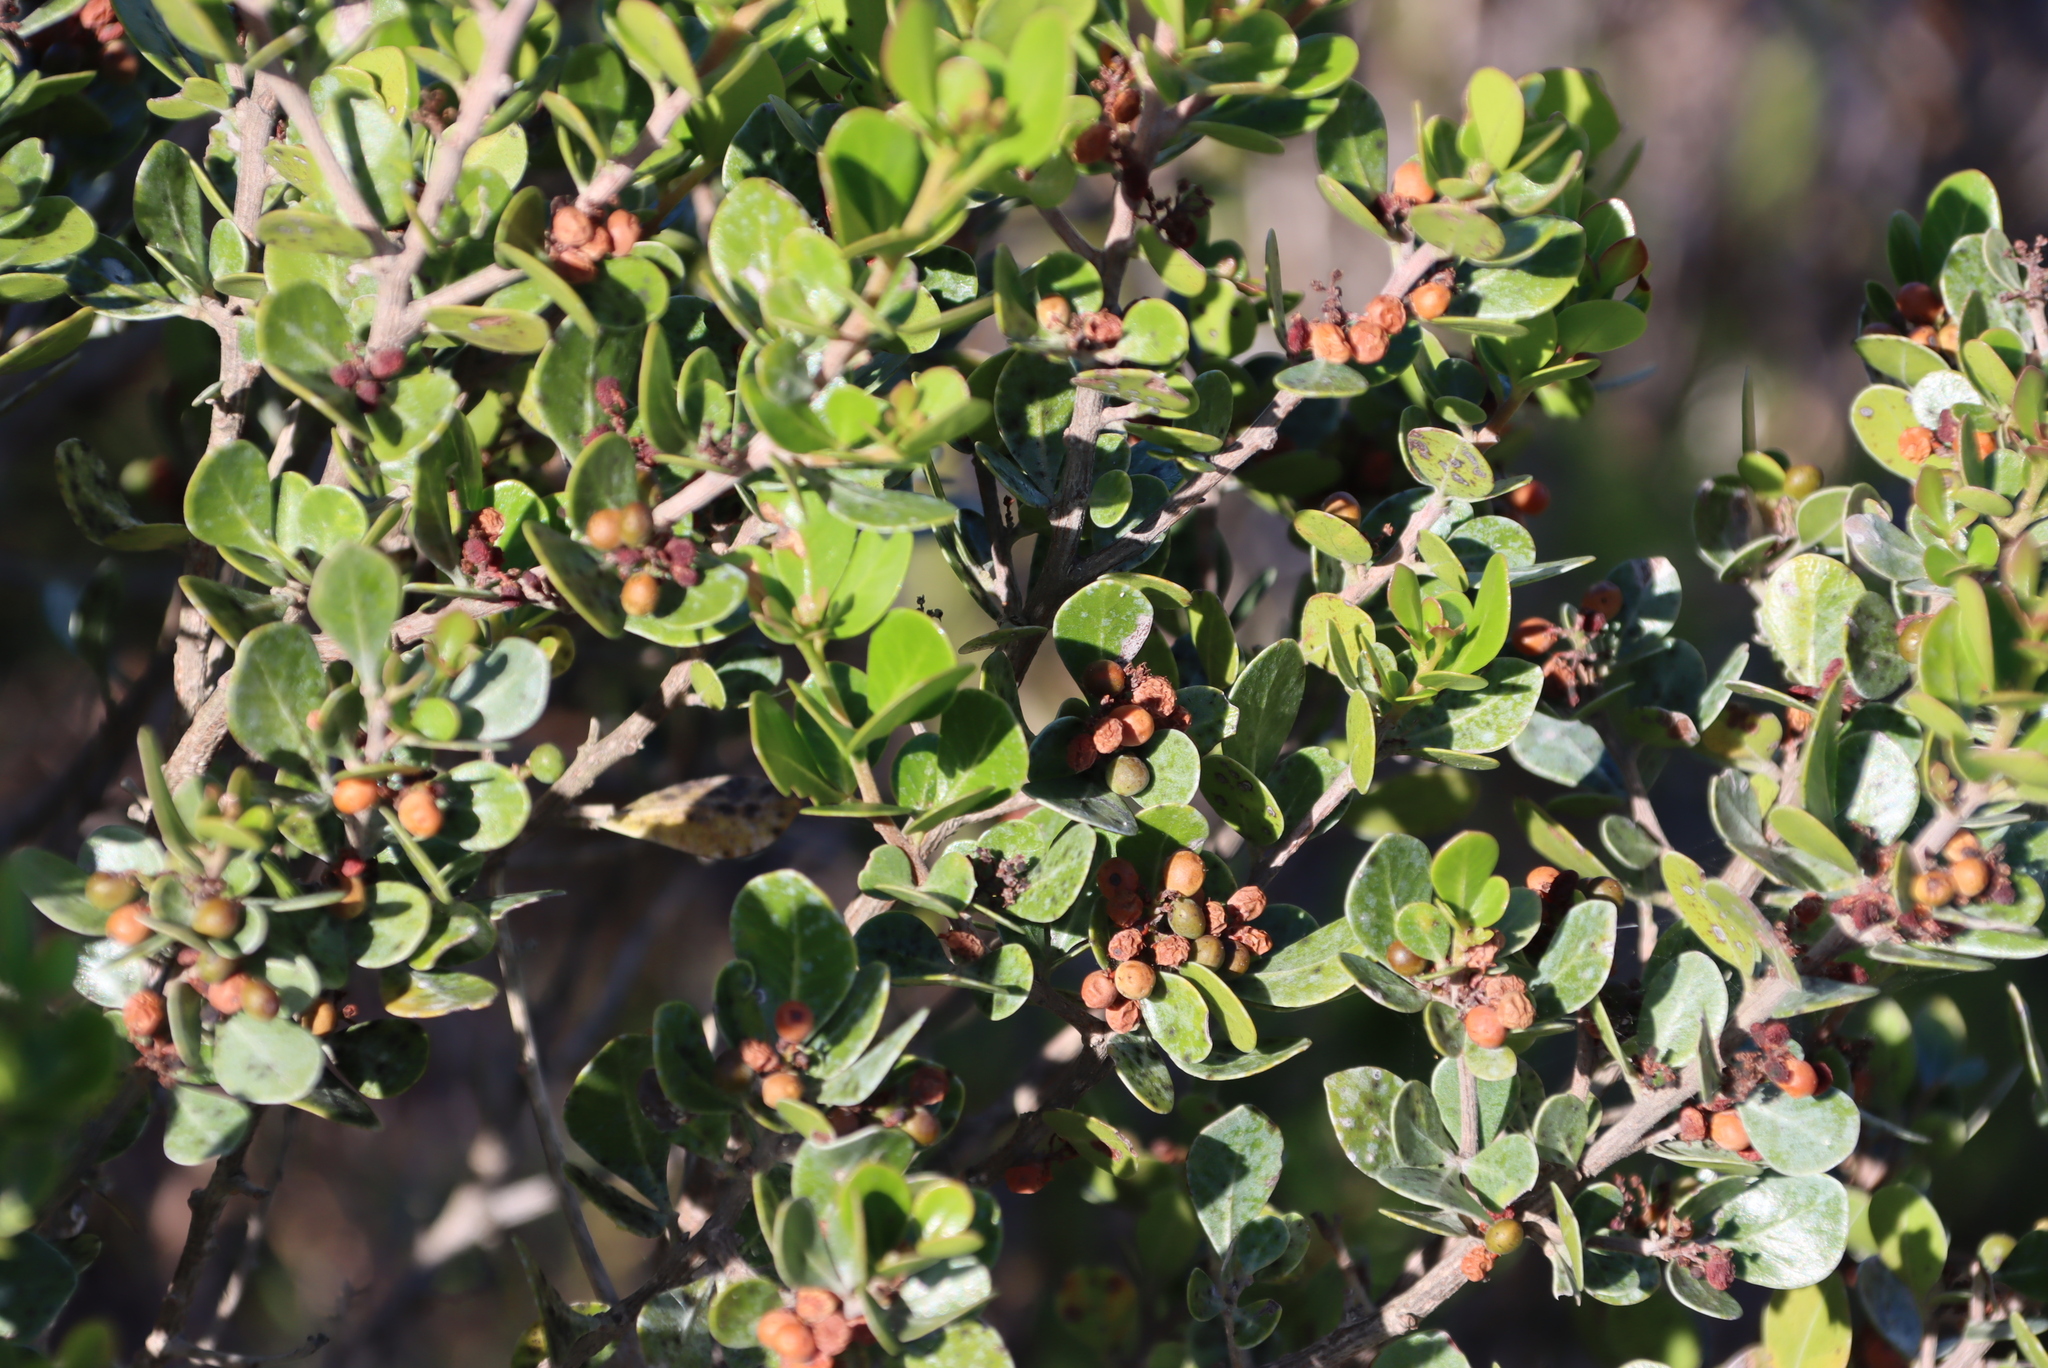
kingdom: Plantae
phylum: Tracheophyta
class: Magnoliopsida
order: Sapindales
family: Anacardiaceae
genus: Searsia
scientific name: Searsia lucida
